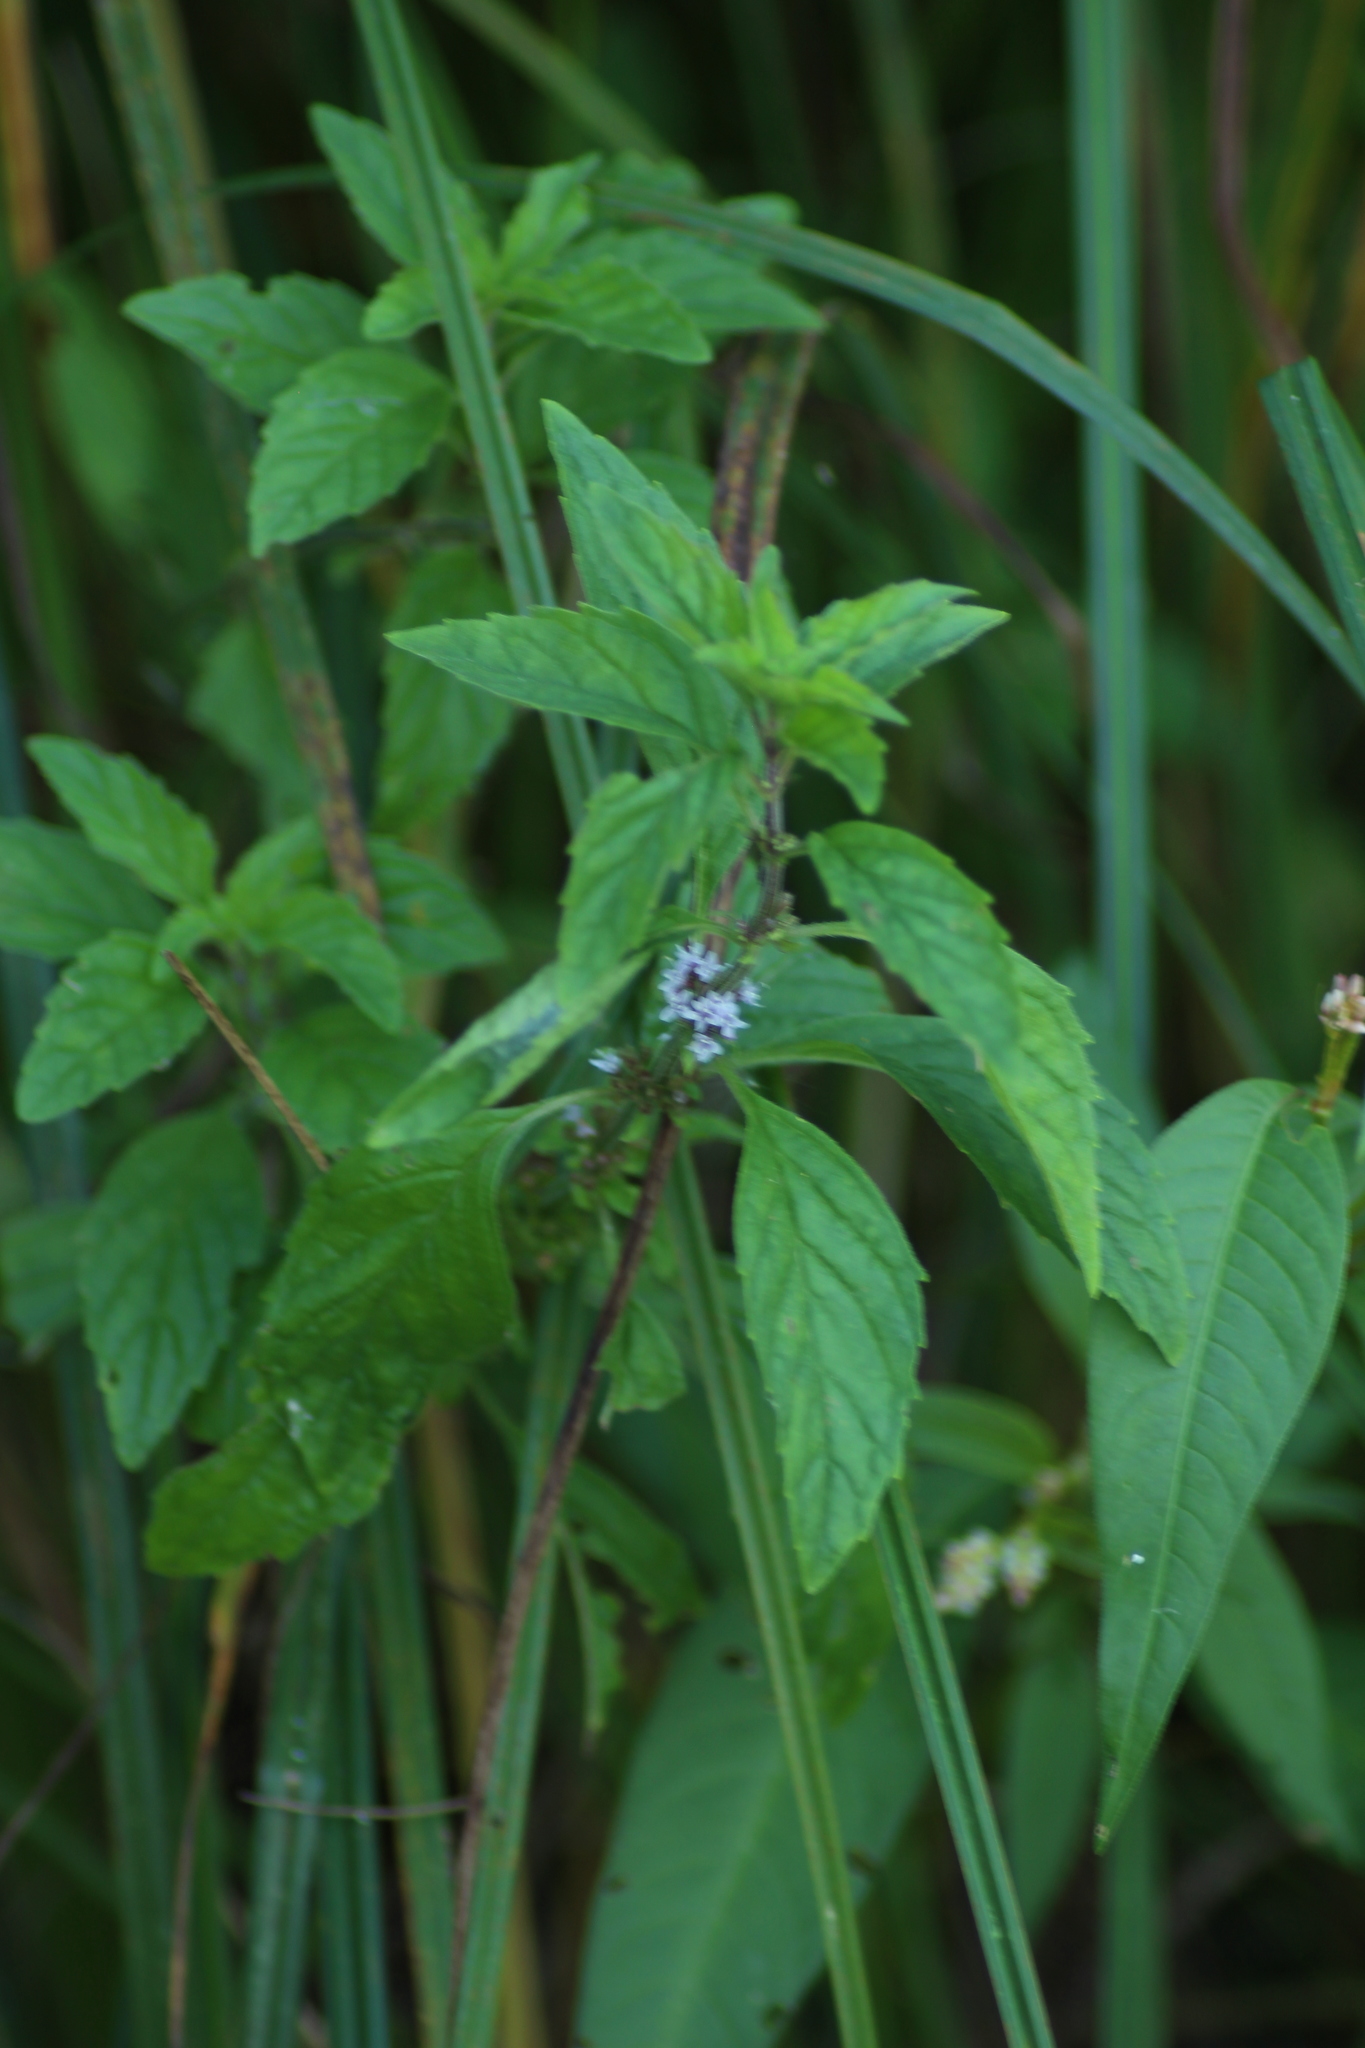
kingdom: Plantae
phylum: Tracheophyta
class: Magnoliopsida
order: Lamiales
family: Lamiaceae
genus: Mentha
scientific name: Mentha arvensis
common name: Corn mint
